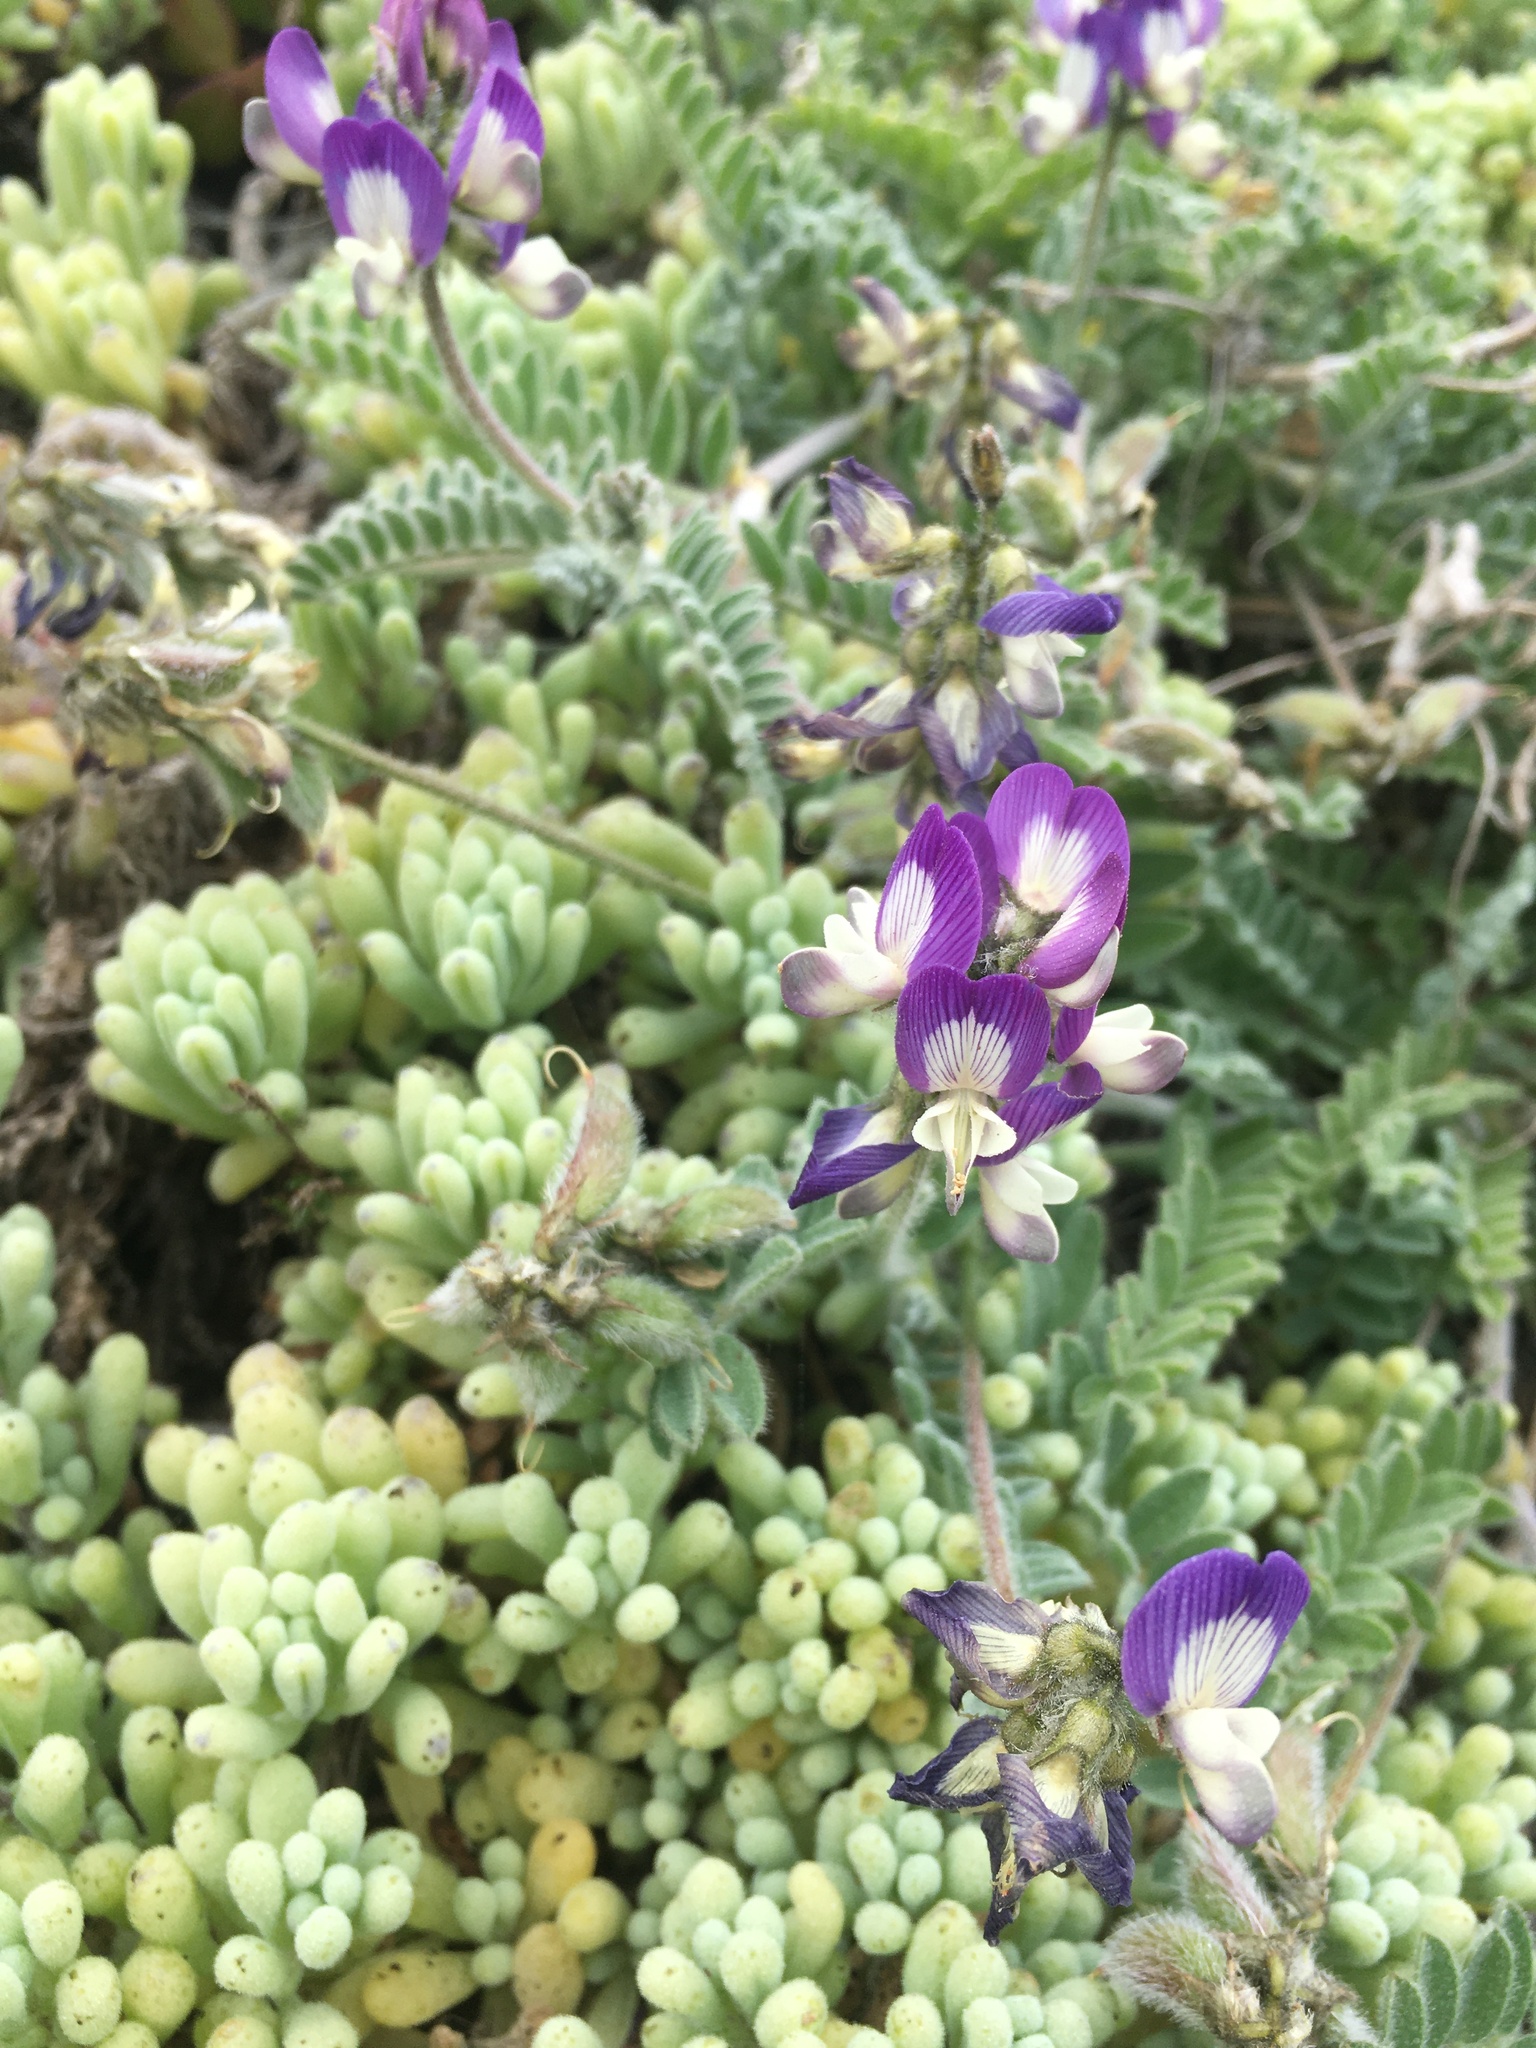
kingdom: Plantae
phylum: Tracheophyta
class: Magnoliopsida
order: Fabales
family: Fabaceae
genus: Astragalus
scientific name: Astragalus amatus
